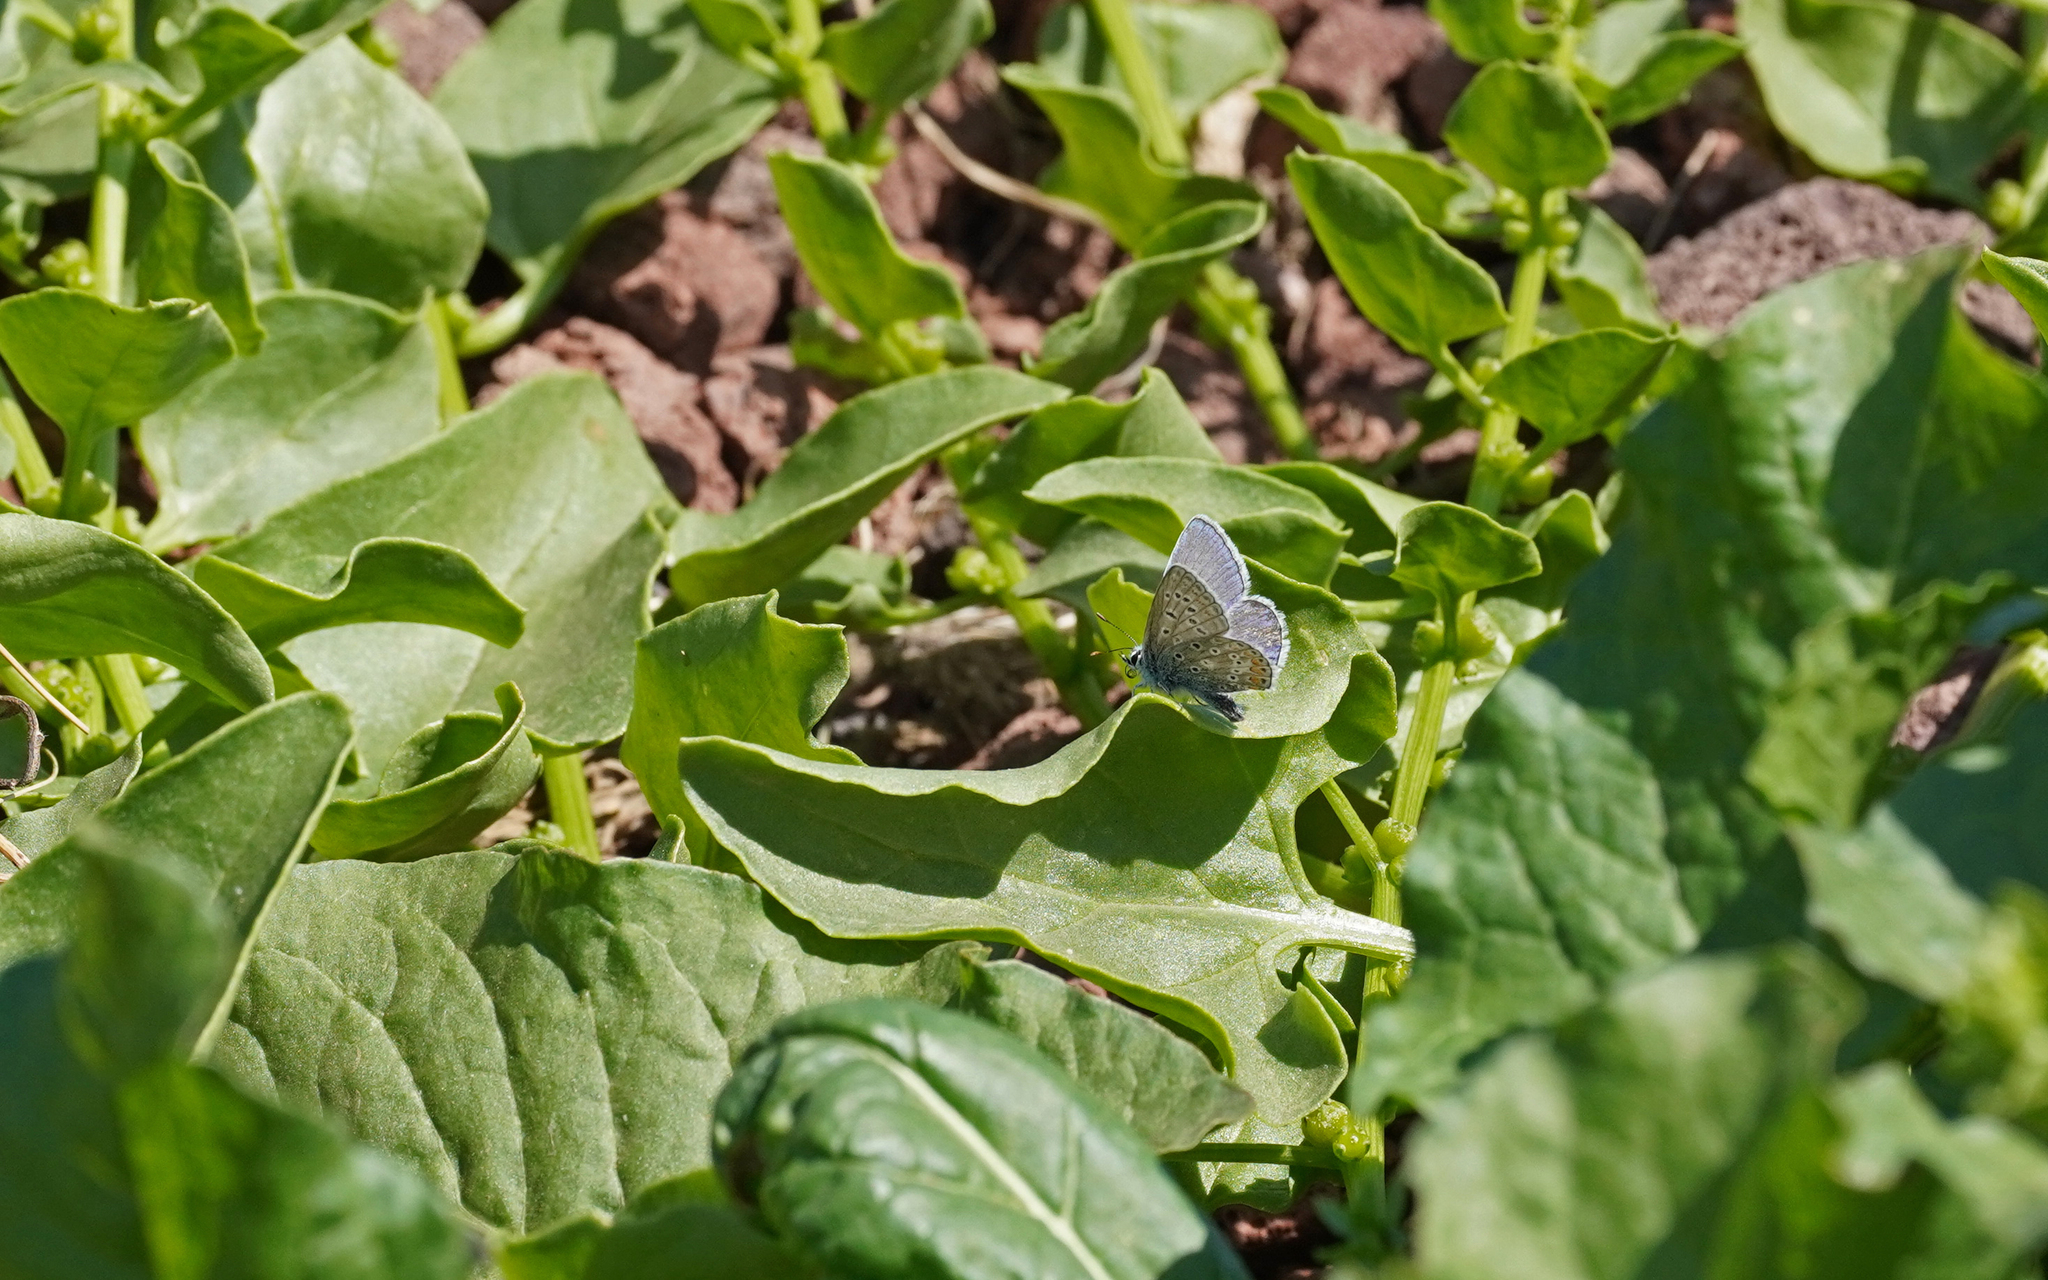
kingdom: Animalia
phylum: Arthropoda
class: Insecta
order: Lepidoptera
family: Lycaenidae
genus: Polyommatus
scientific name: Polyommatus celina
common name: Austaut's blue
